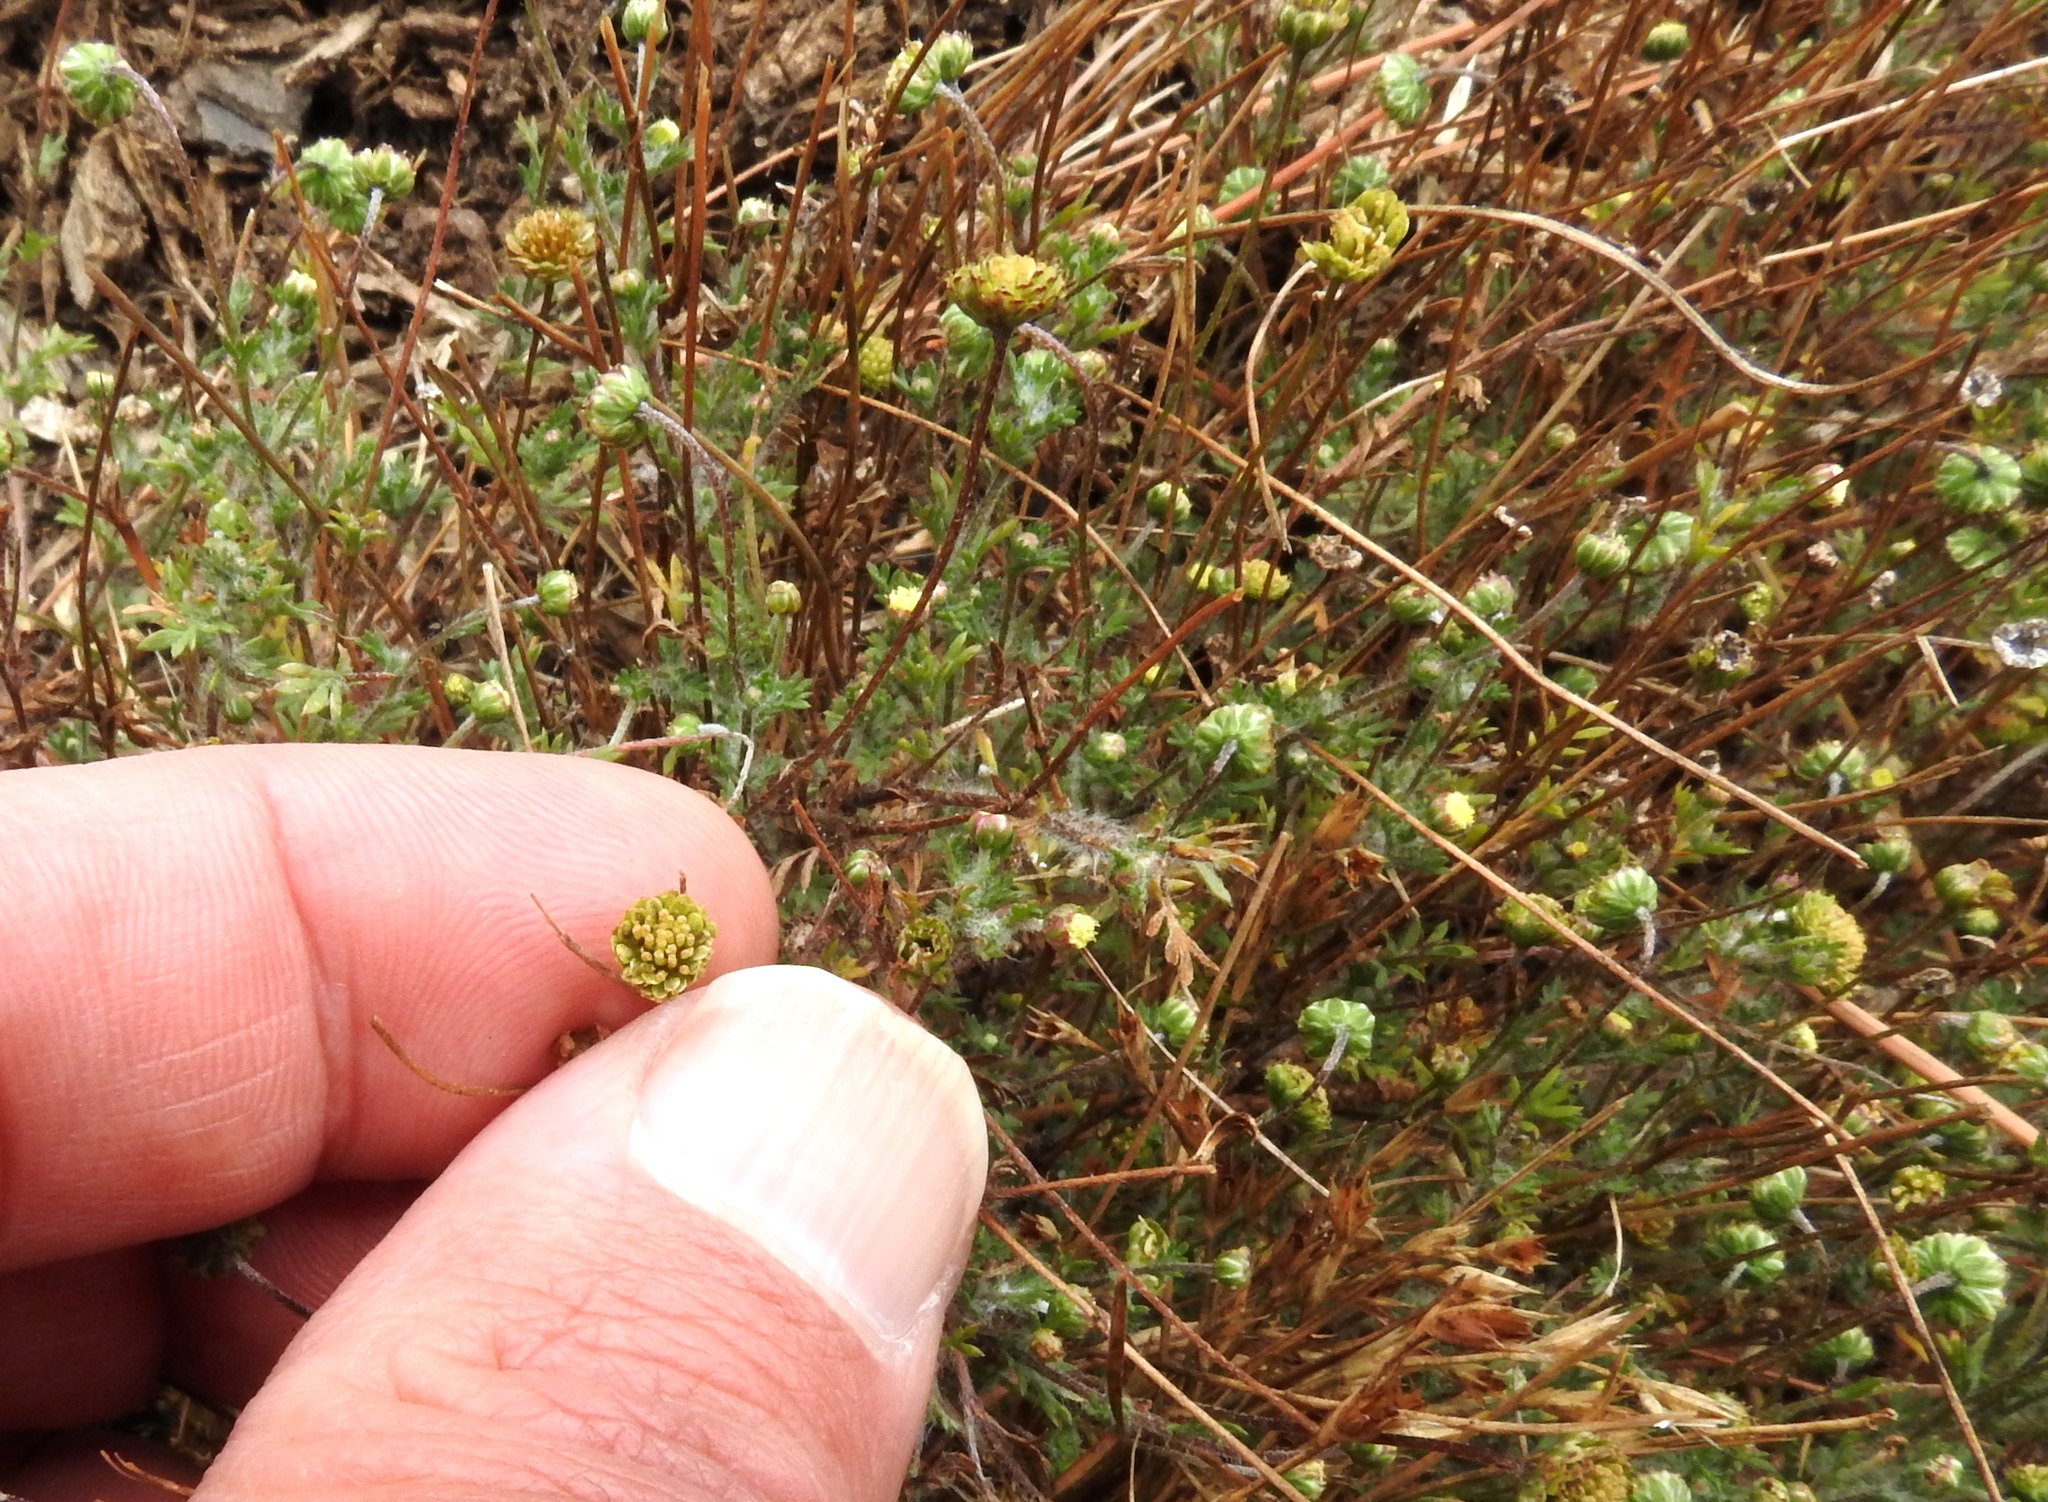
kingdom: Plantae
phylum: Tracheophyta
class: Magnoliopsida
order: Asterales
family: Asteraceae
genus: Cotula
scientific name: Cotula australis
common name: Australian waterbuttons
